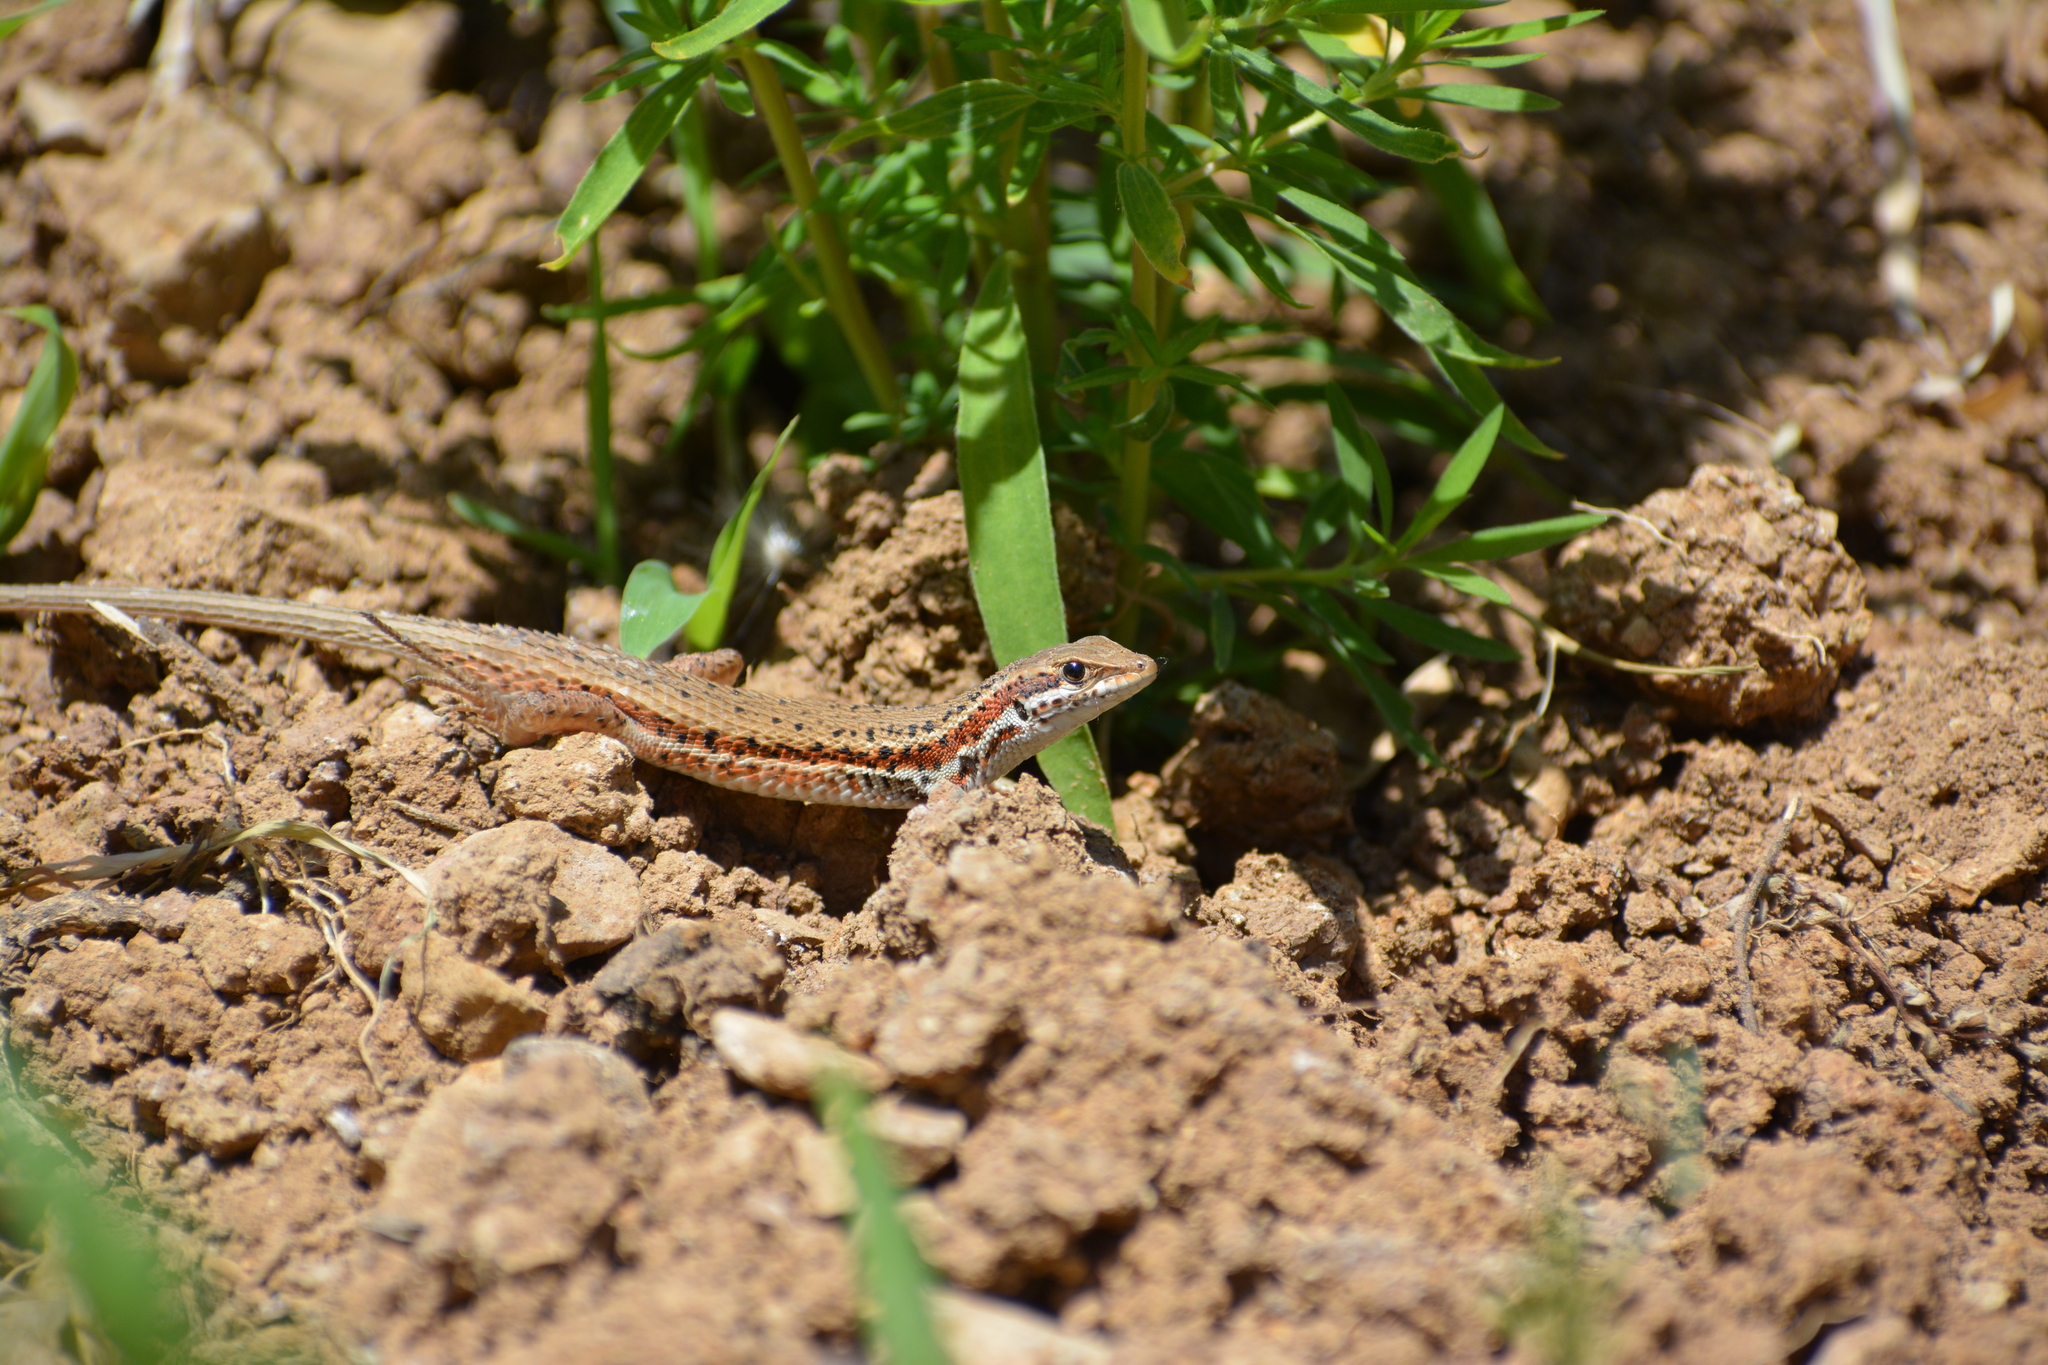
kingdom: Animalia
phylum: Chordata
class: Squamata
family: Lacertidae
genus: Ophisops
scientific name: Ophisops elegans
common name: Snake-eyed lizard
